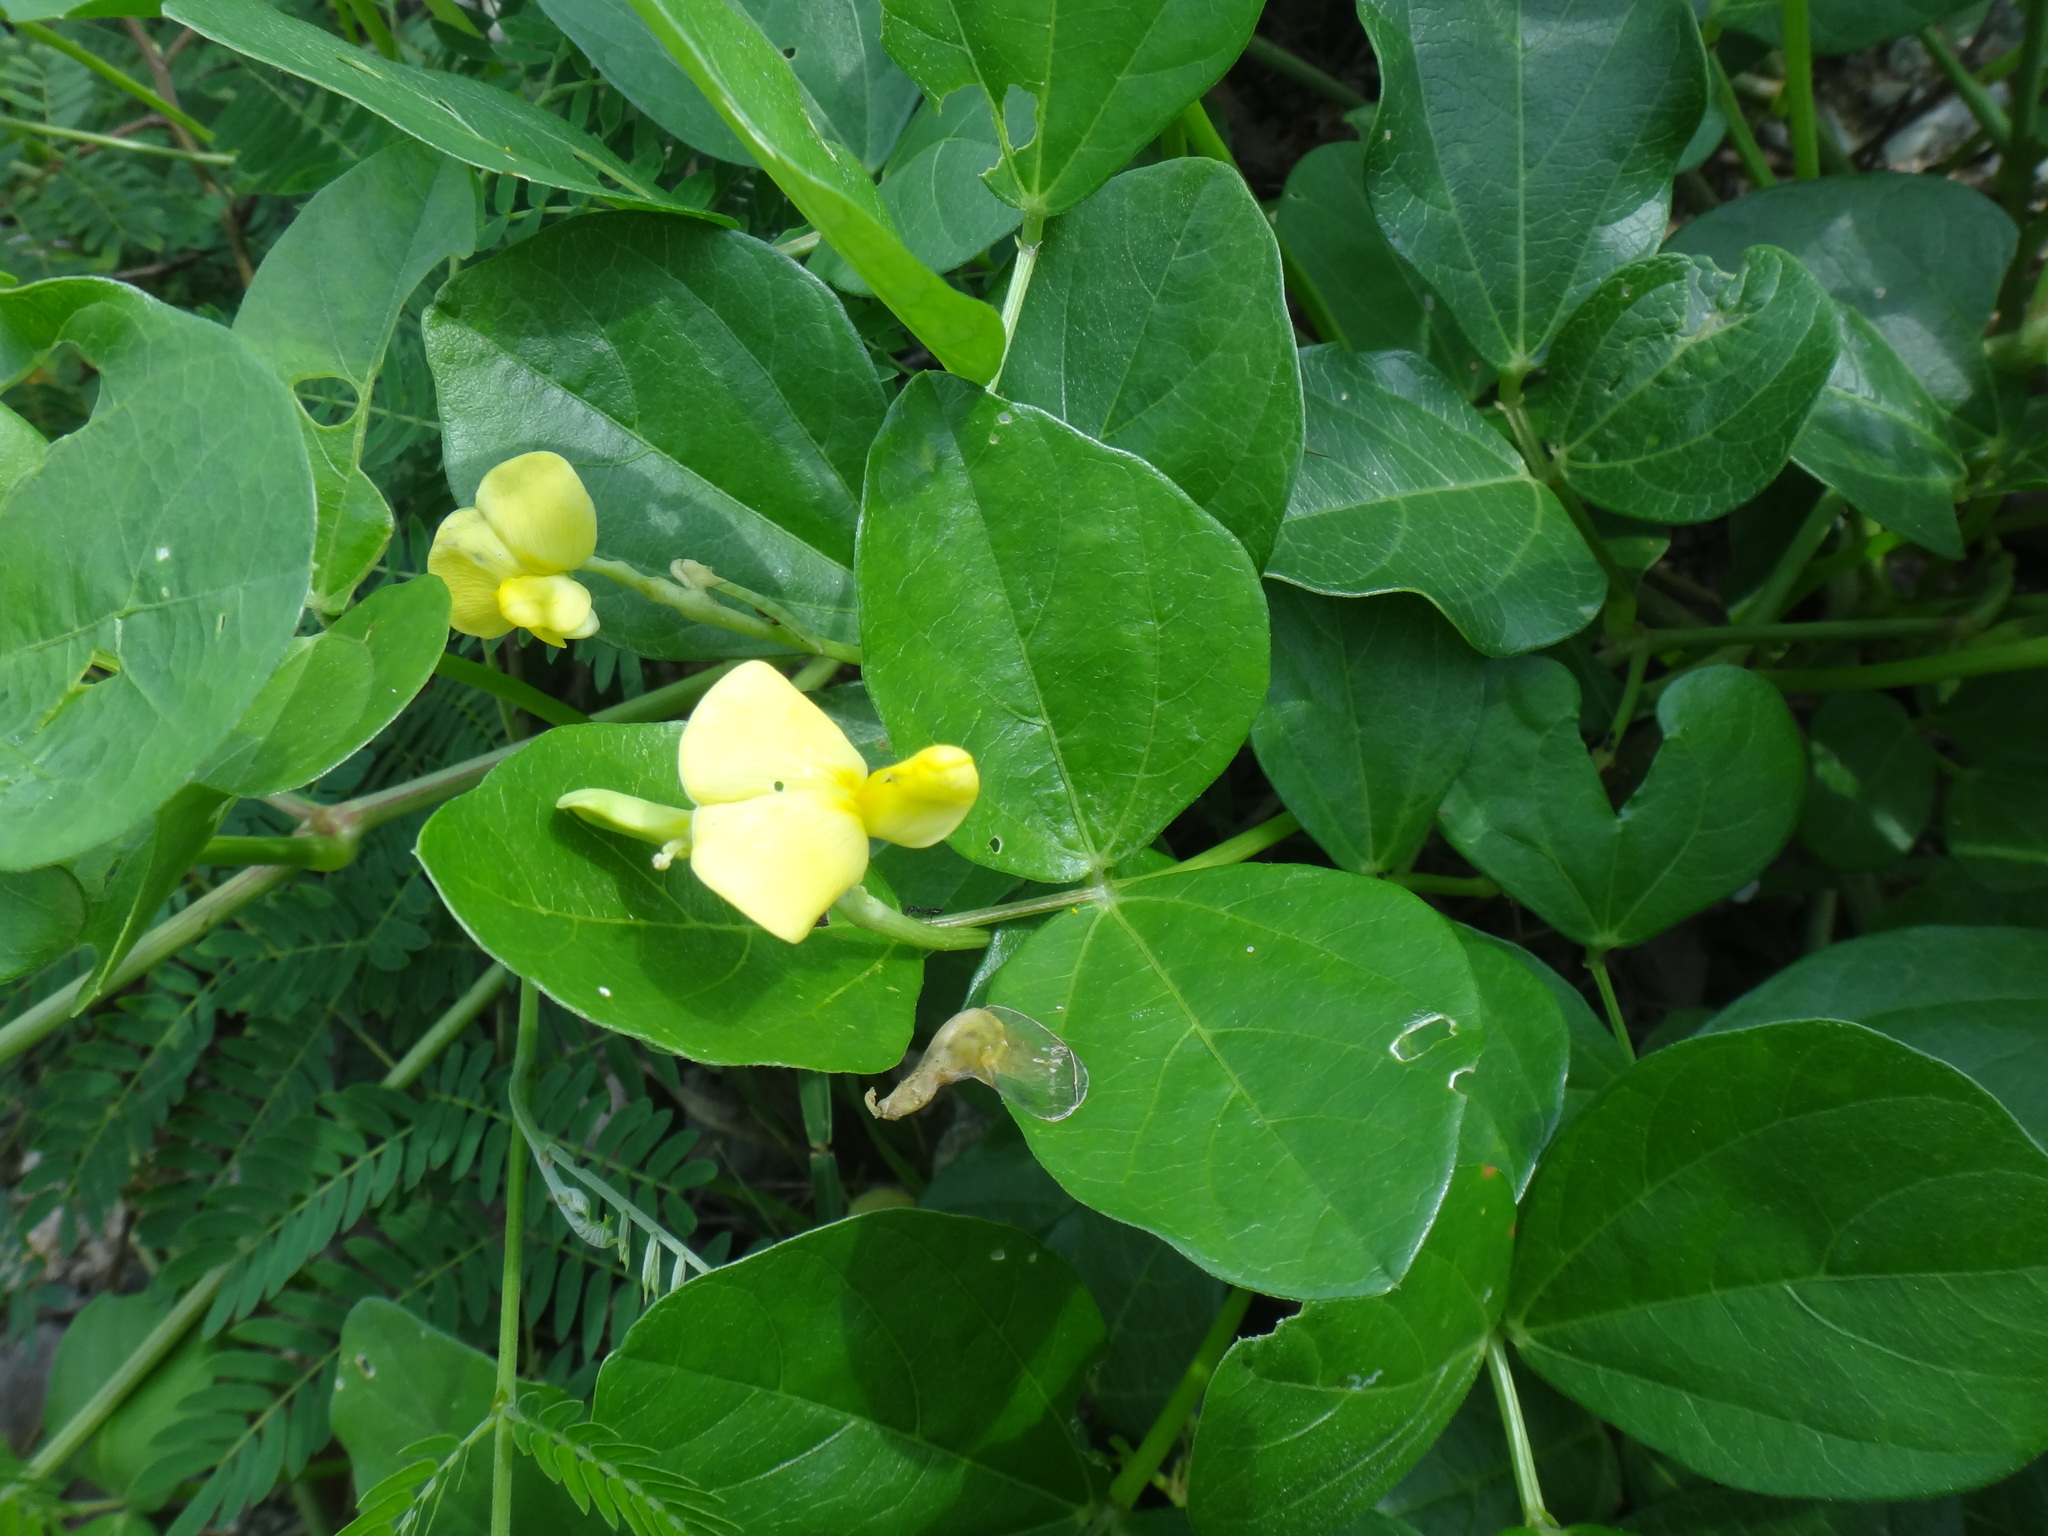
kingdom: Plantae
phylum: Tracheophyta
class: Magnoliopsida
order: Fabales
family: Fabaceae
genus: Vigna
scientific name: Vigna marina
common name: Dune-bean
